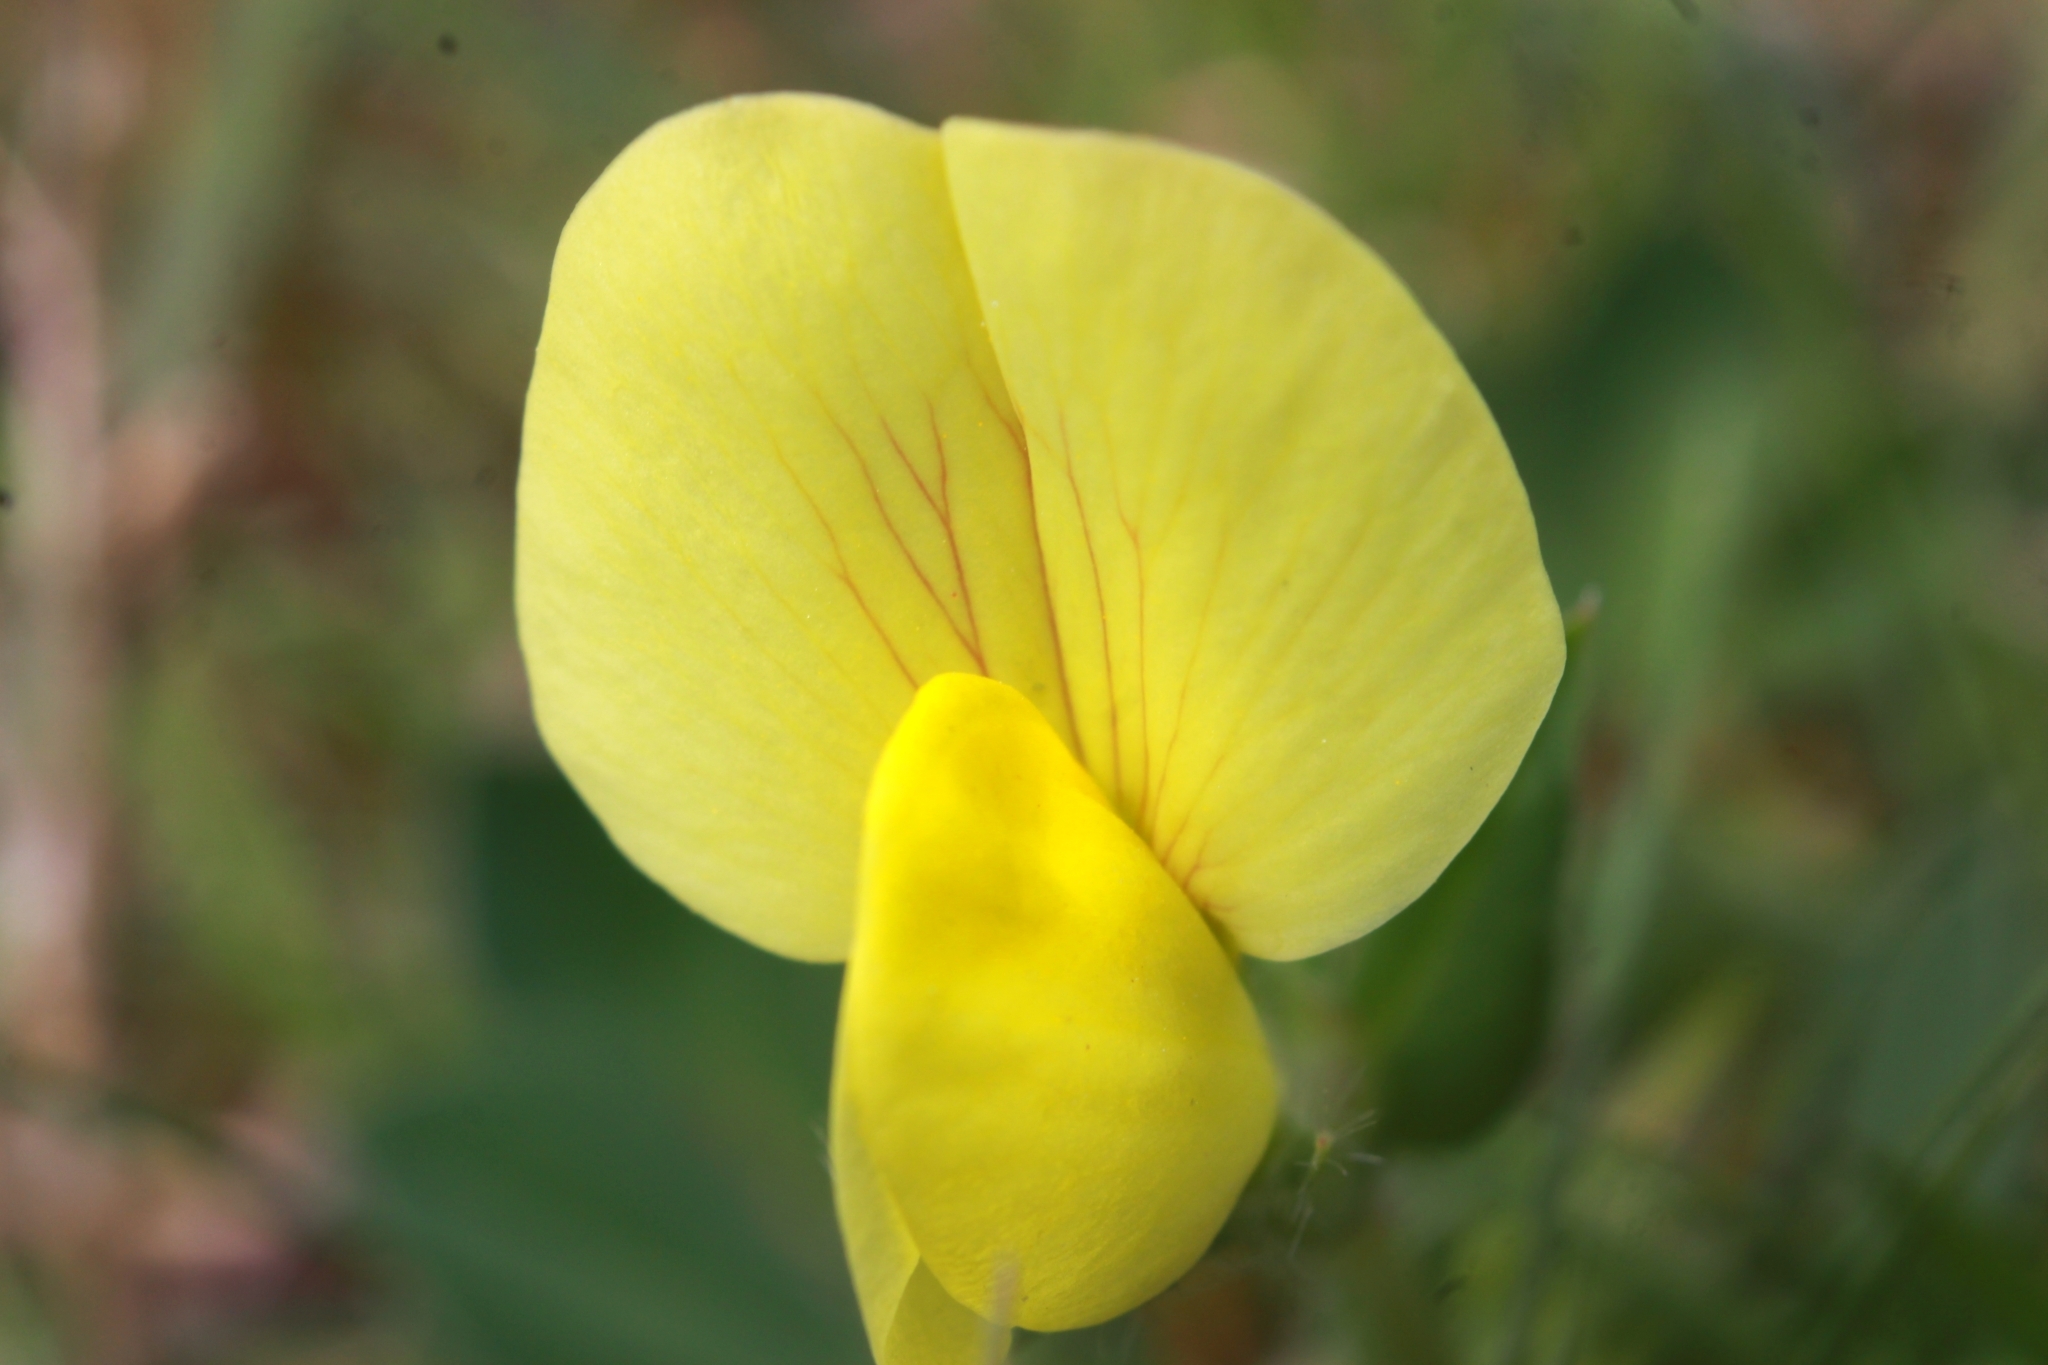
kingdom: Plantae
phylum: Tracheophyta
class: Magnoliopsida
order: Fabales
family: Fabaceae
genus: Lotus
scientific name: Lotus maritimus
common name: Dragon's-teeth
